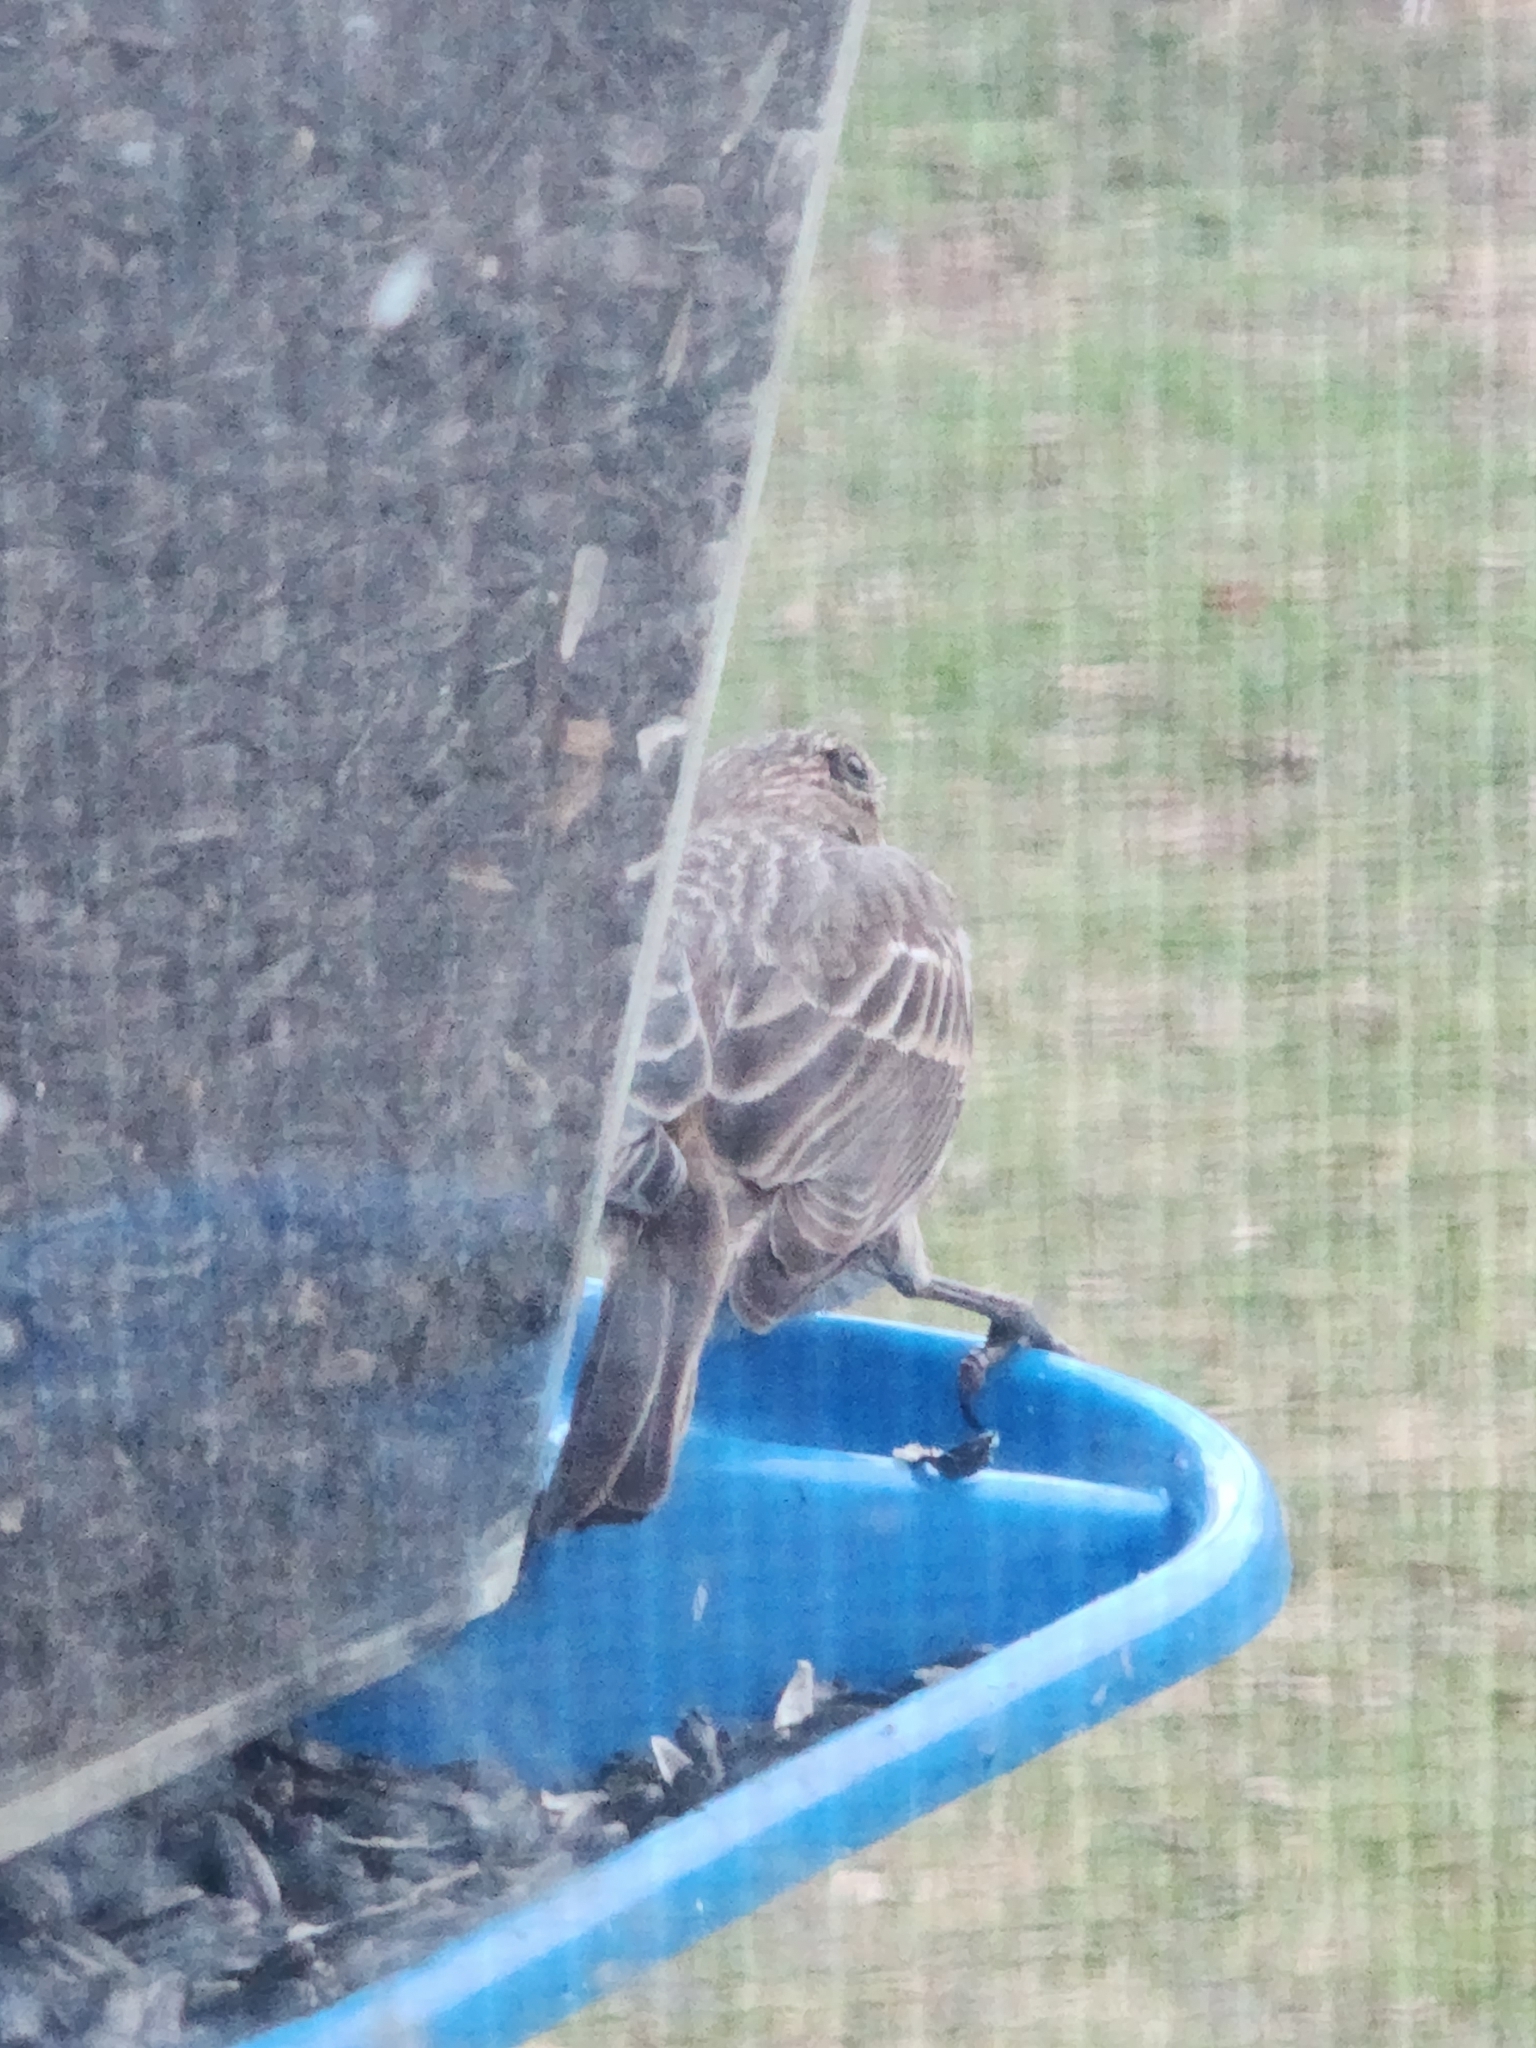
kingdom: Animalia
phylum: Chordata
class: Aves
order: Passeriformes
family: Fringillidae
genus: Haemorhous
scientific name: Haemorhous mexicanus
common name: House finch
